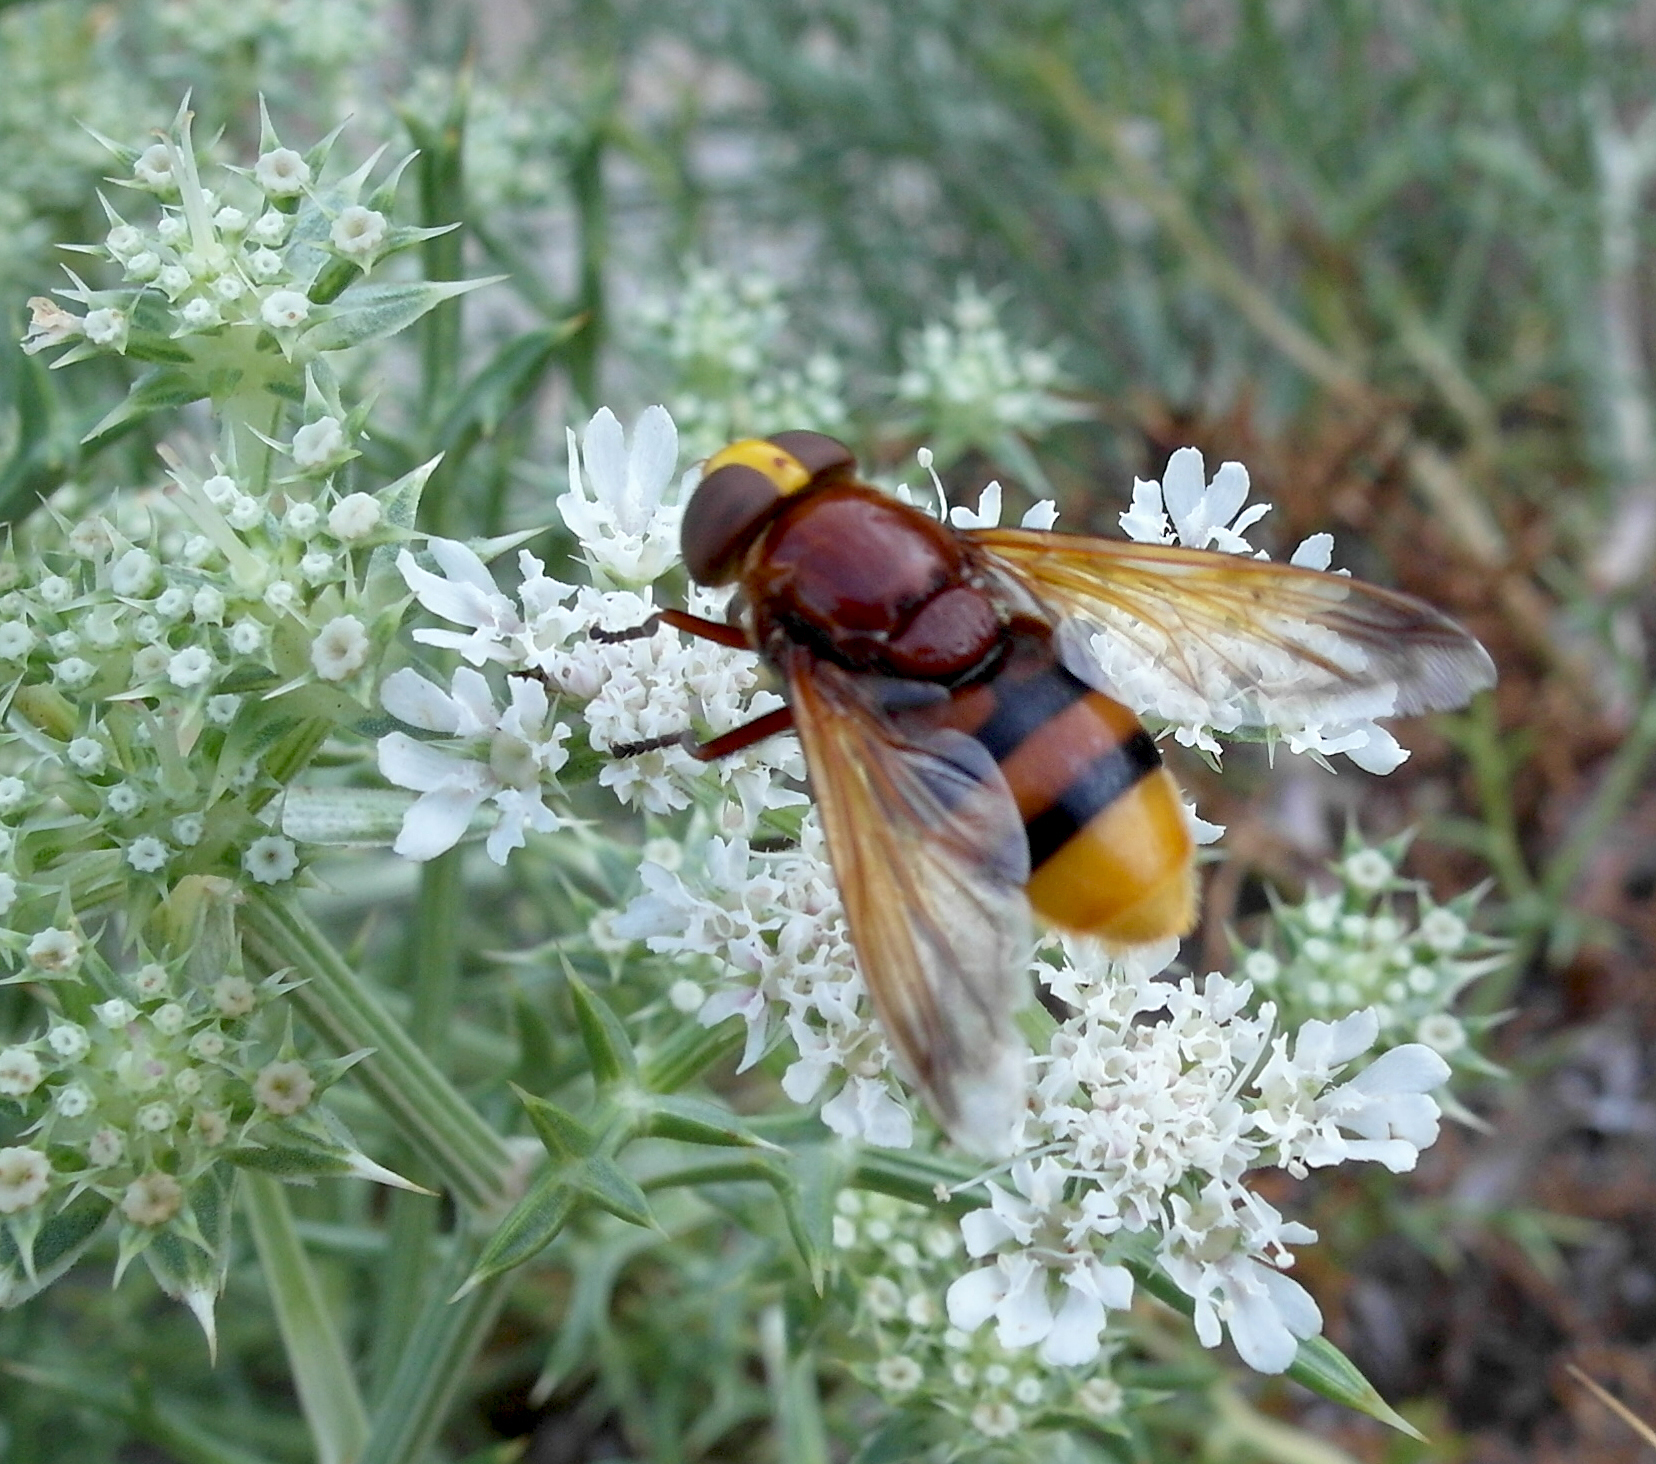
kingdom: Animalia
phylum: Arthropoda
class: Insecta
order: Diptera
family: Syrphidae
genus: Volucella
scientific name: Volucella zonaria
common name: Hornet hoverfly
